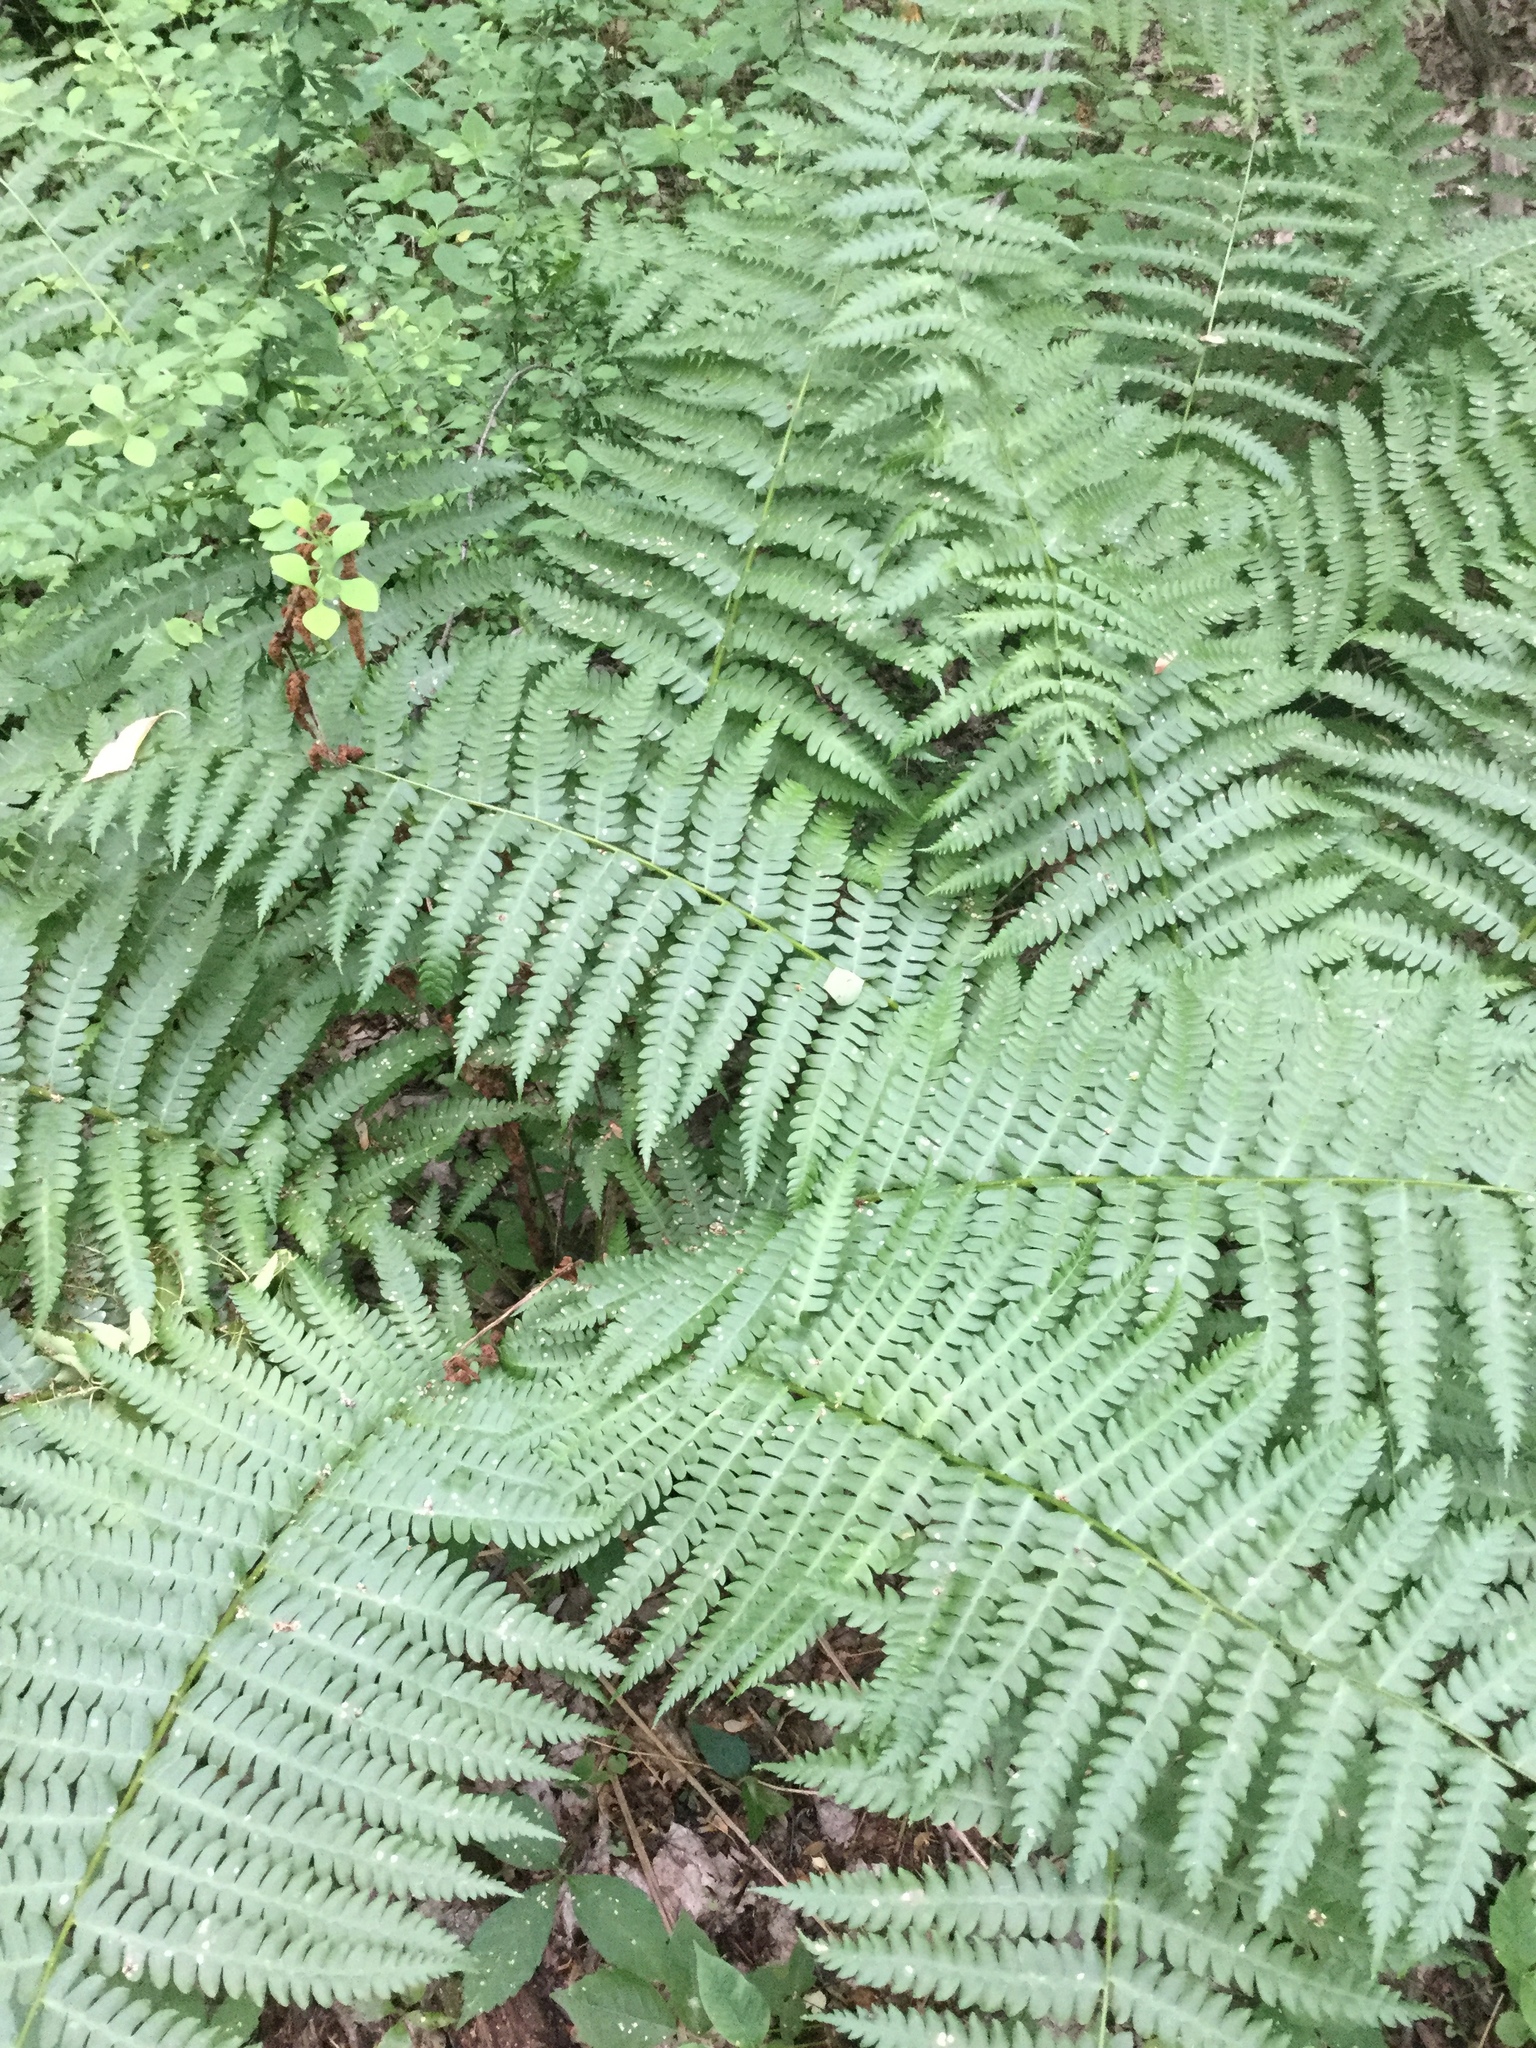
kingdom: Plantae
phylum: Tracheophyta
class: Polypodiopsida
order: Osmundales
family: Osmundaceae
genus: Osmundastrum
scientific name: Osmundastrum cinnamomeum
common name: Cinnamon fern
